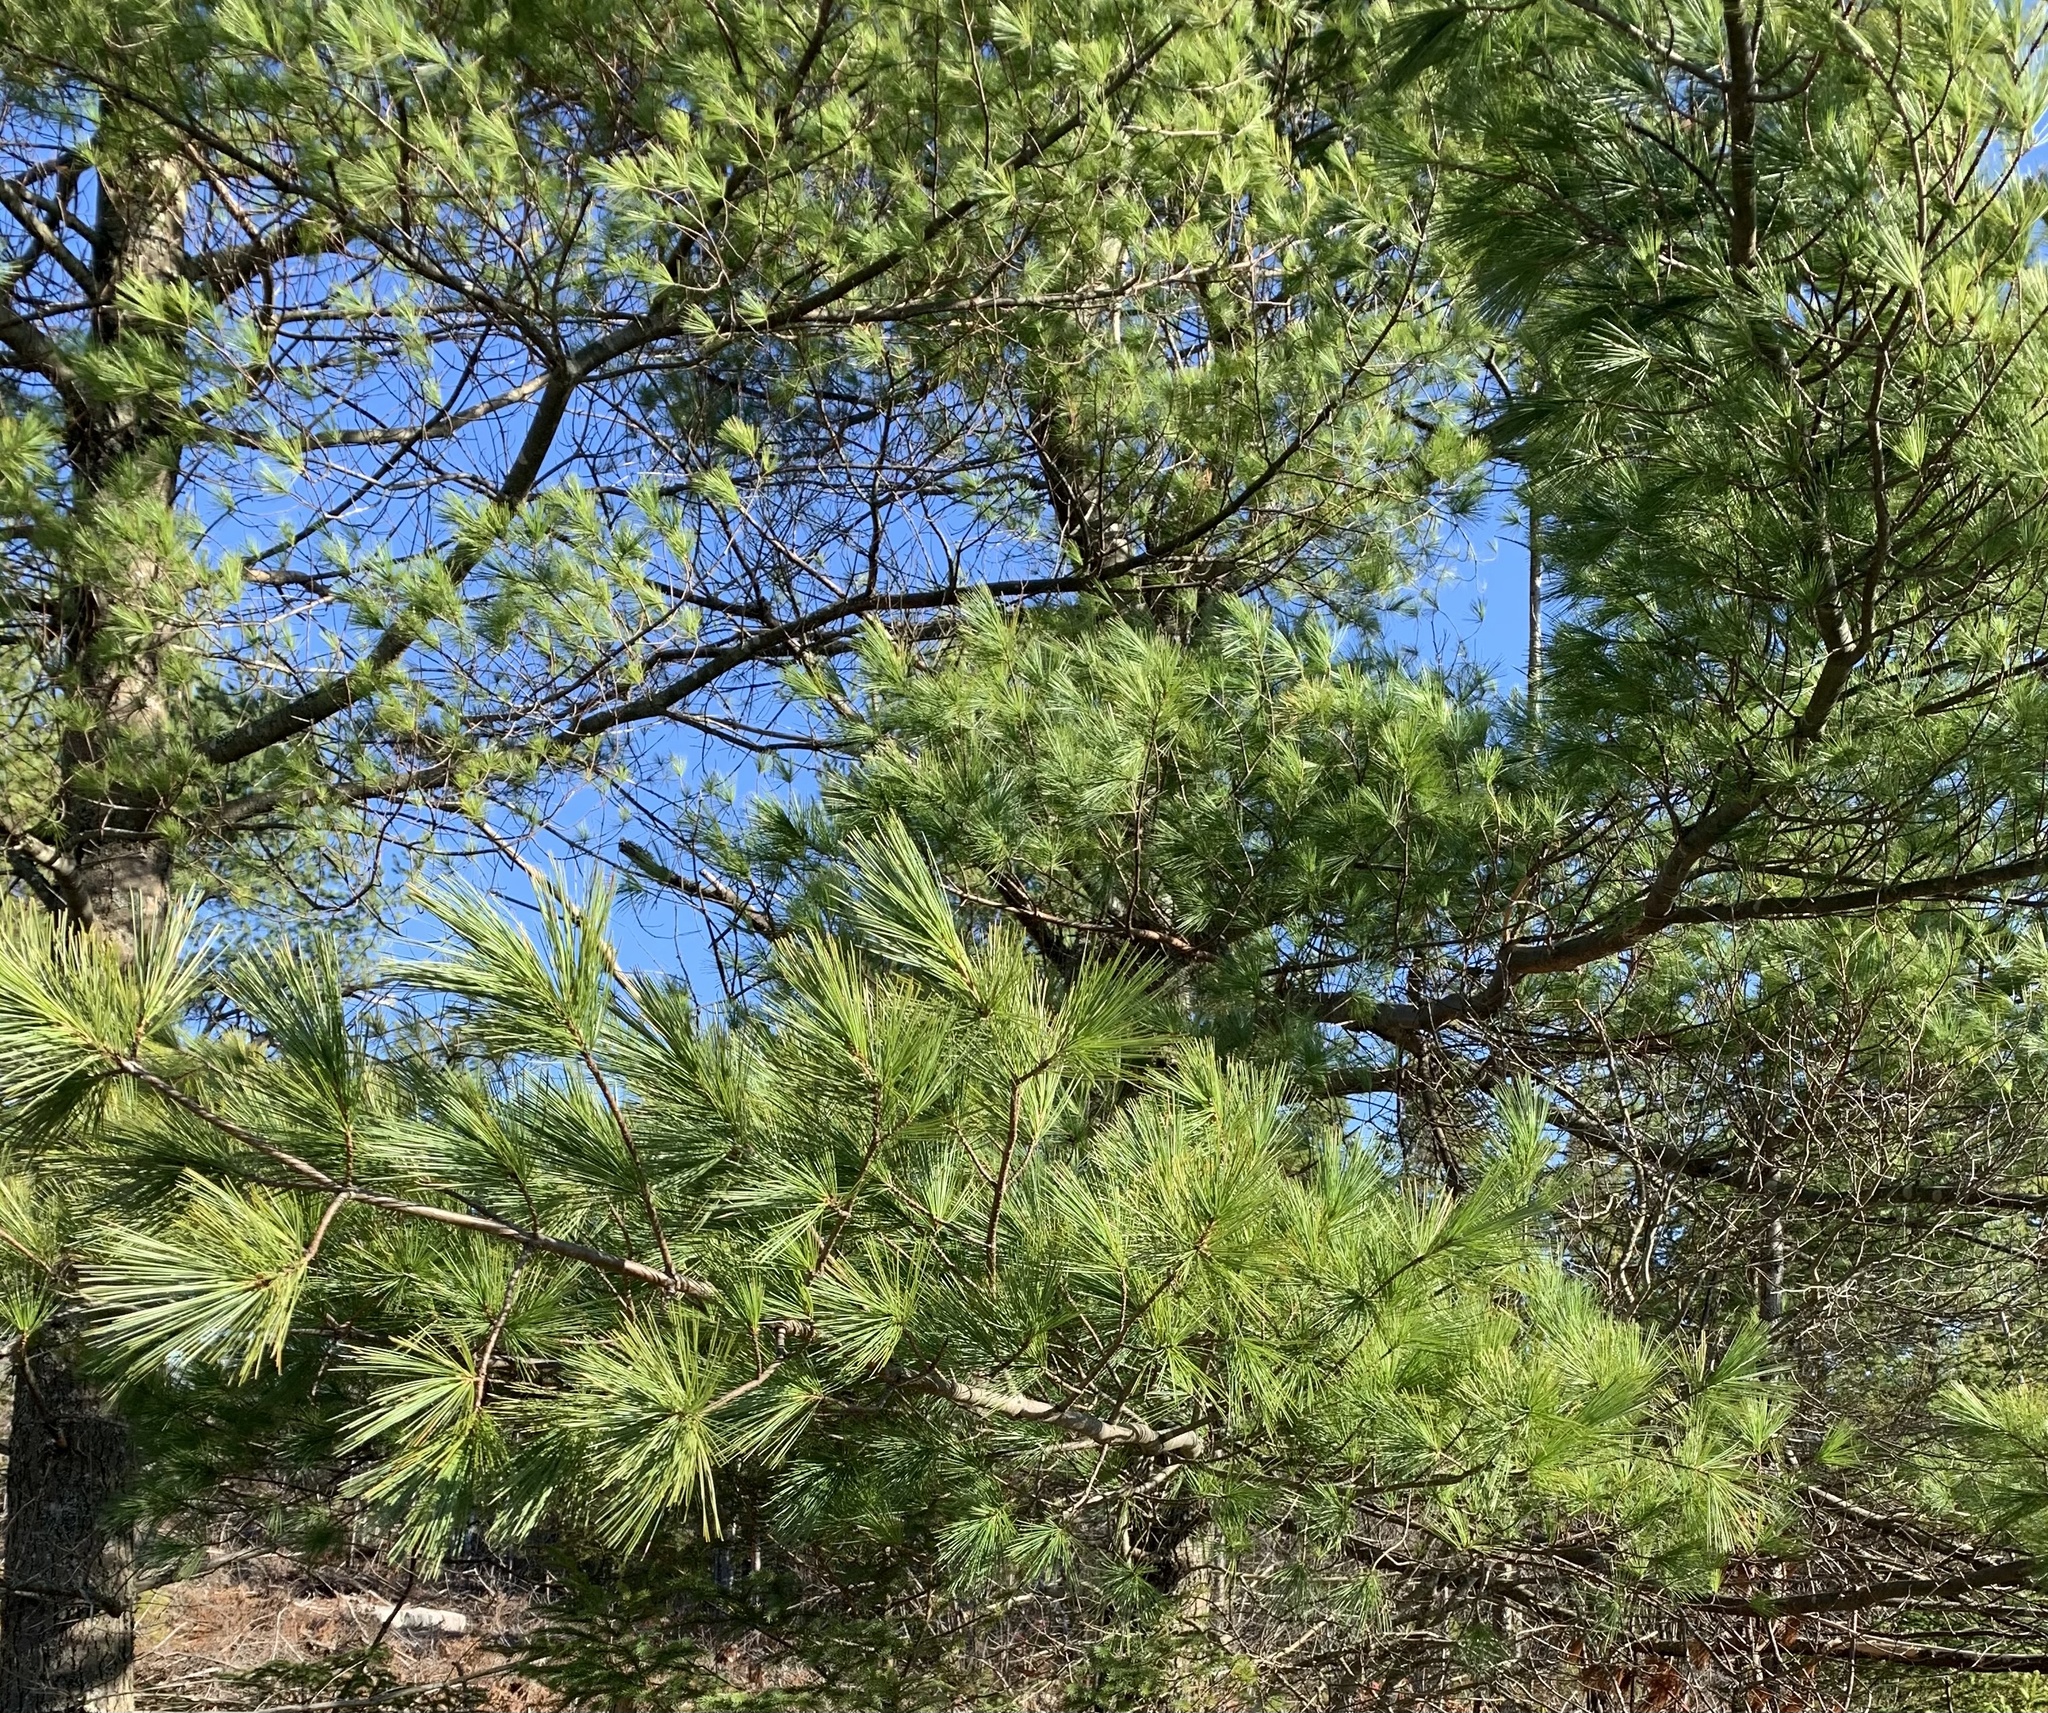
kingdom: Plantae
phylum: Tracheophyta
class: Pinopsida
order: Pinales
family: Pinaceae
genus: Pinus
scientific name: Pinus strobus
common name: Weymouth pine
